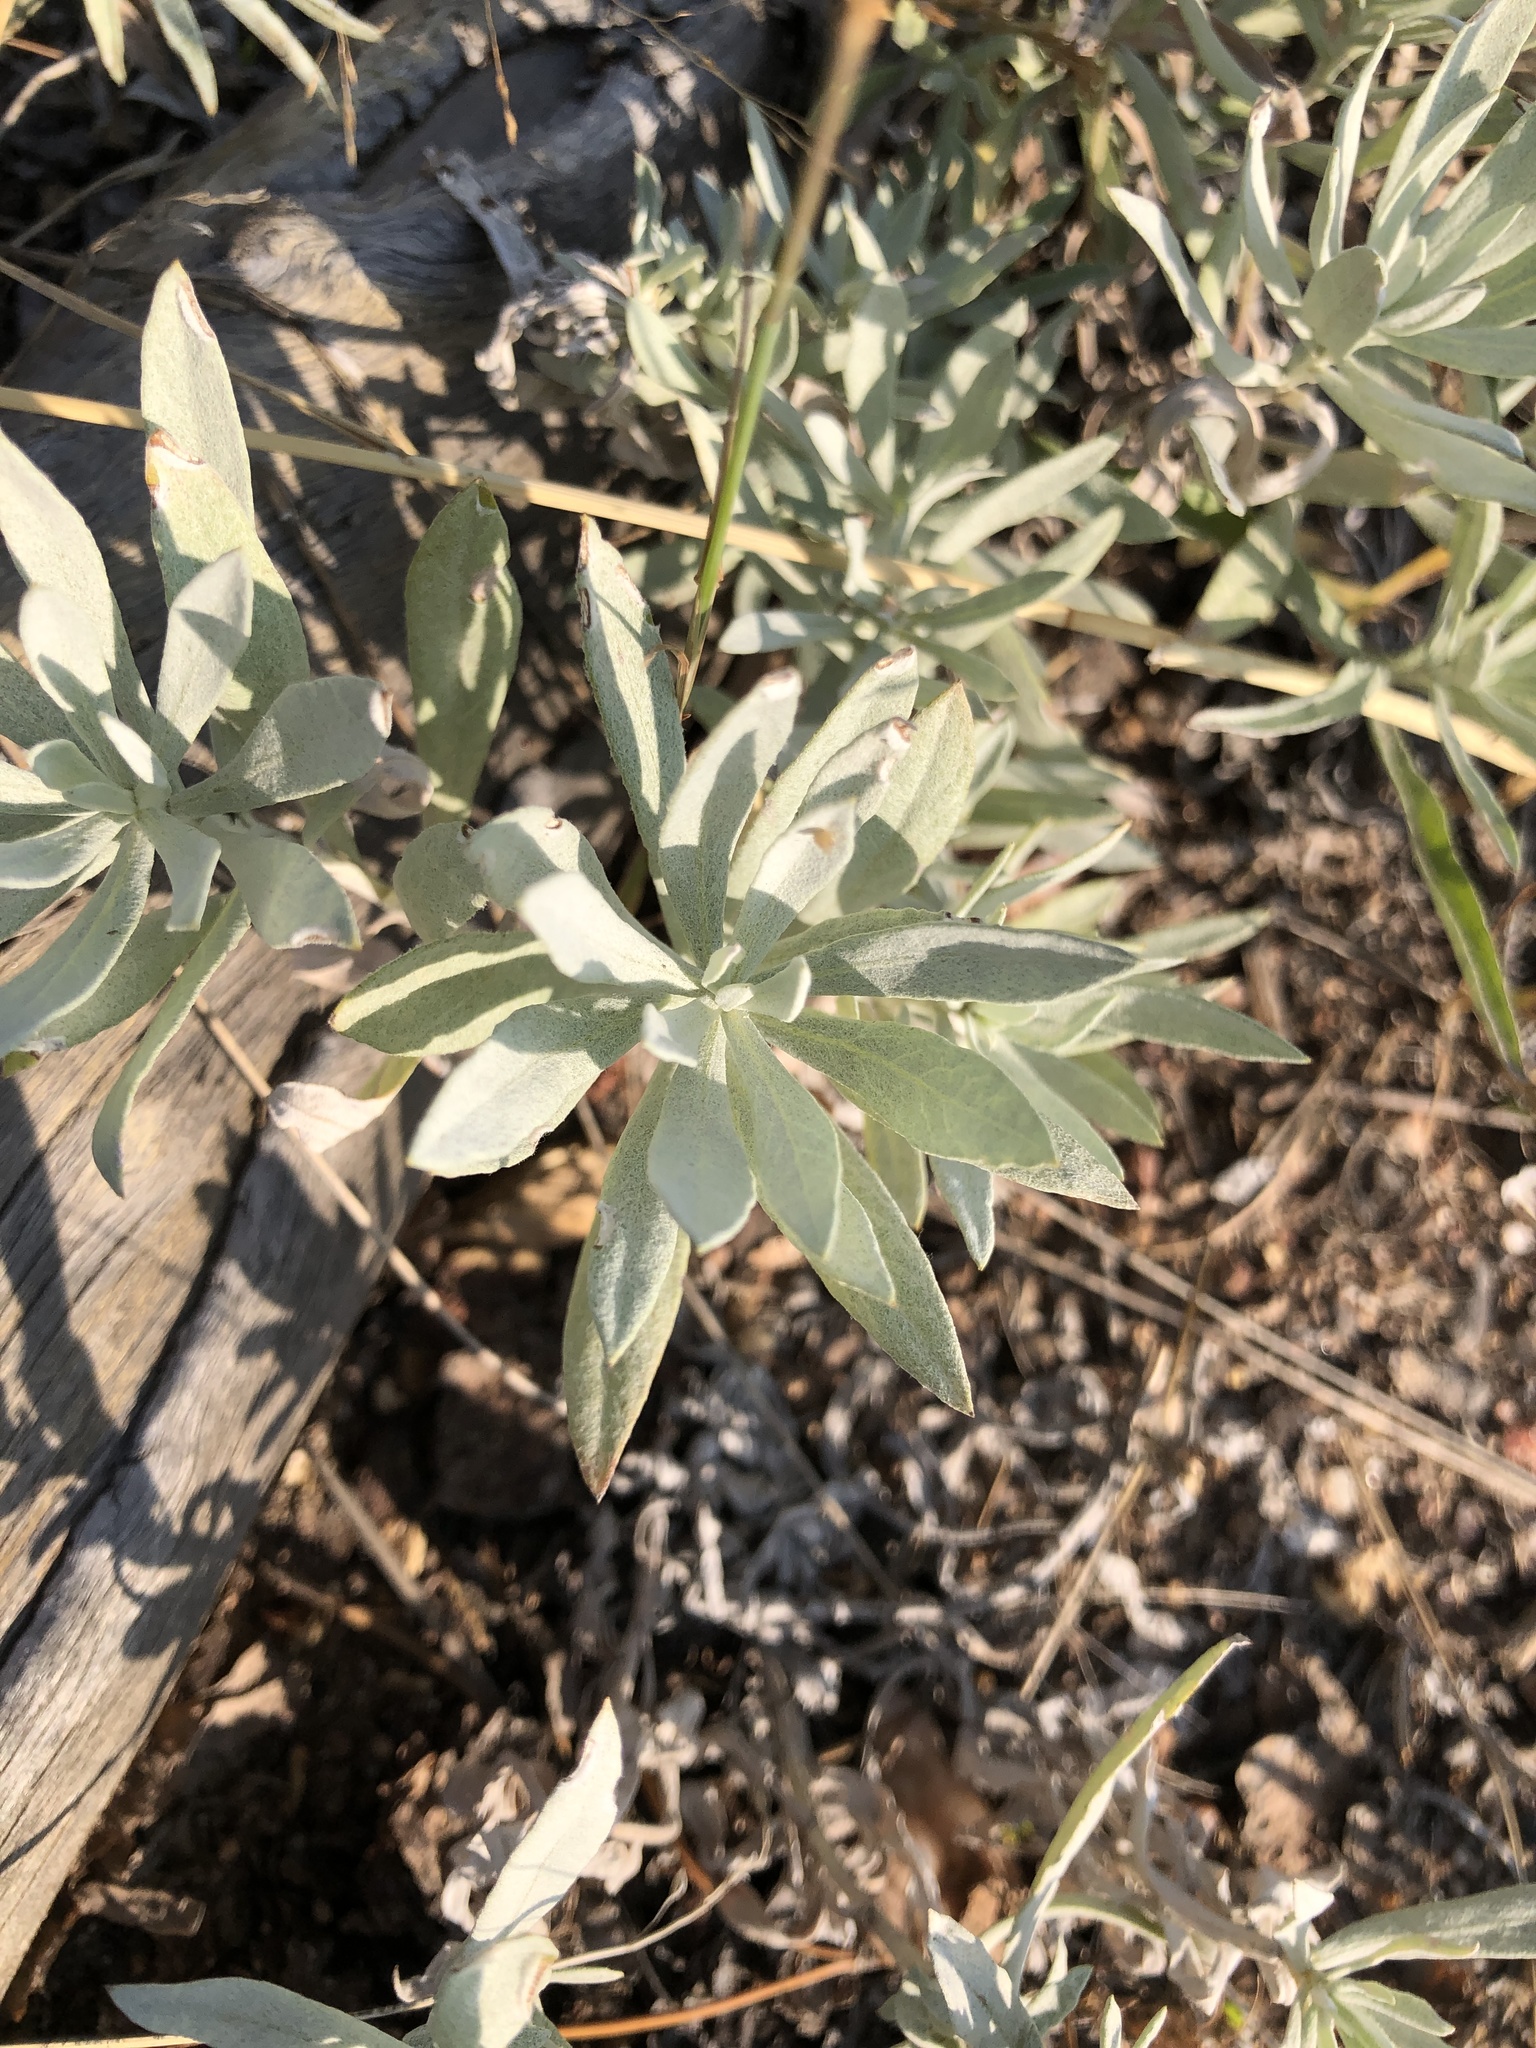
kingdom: Plantae
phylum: Tracheophyta
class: Magnoliopsida
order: Asterales
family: Asteraceae
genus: Artemisia
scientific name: Artemisia ludoviciana
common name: Western mugwort
